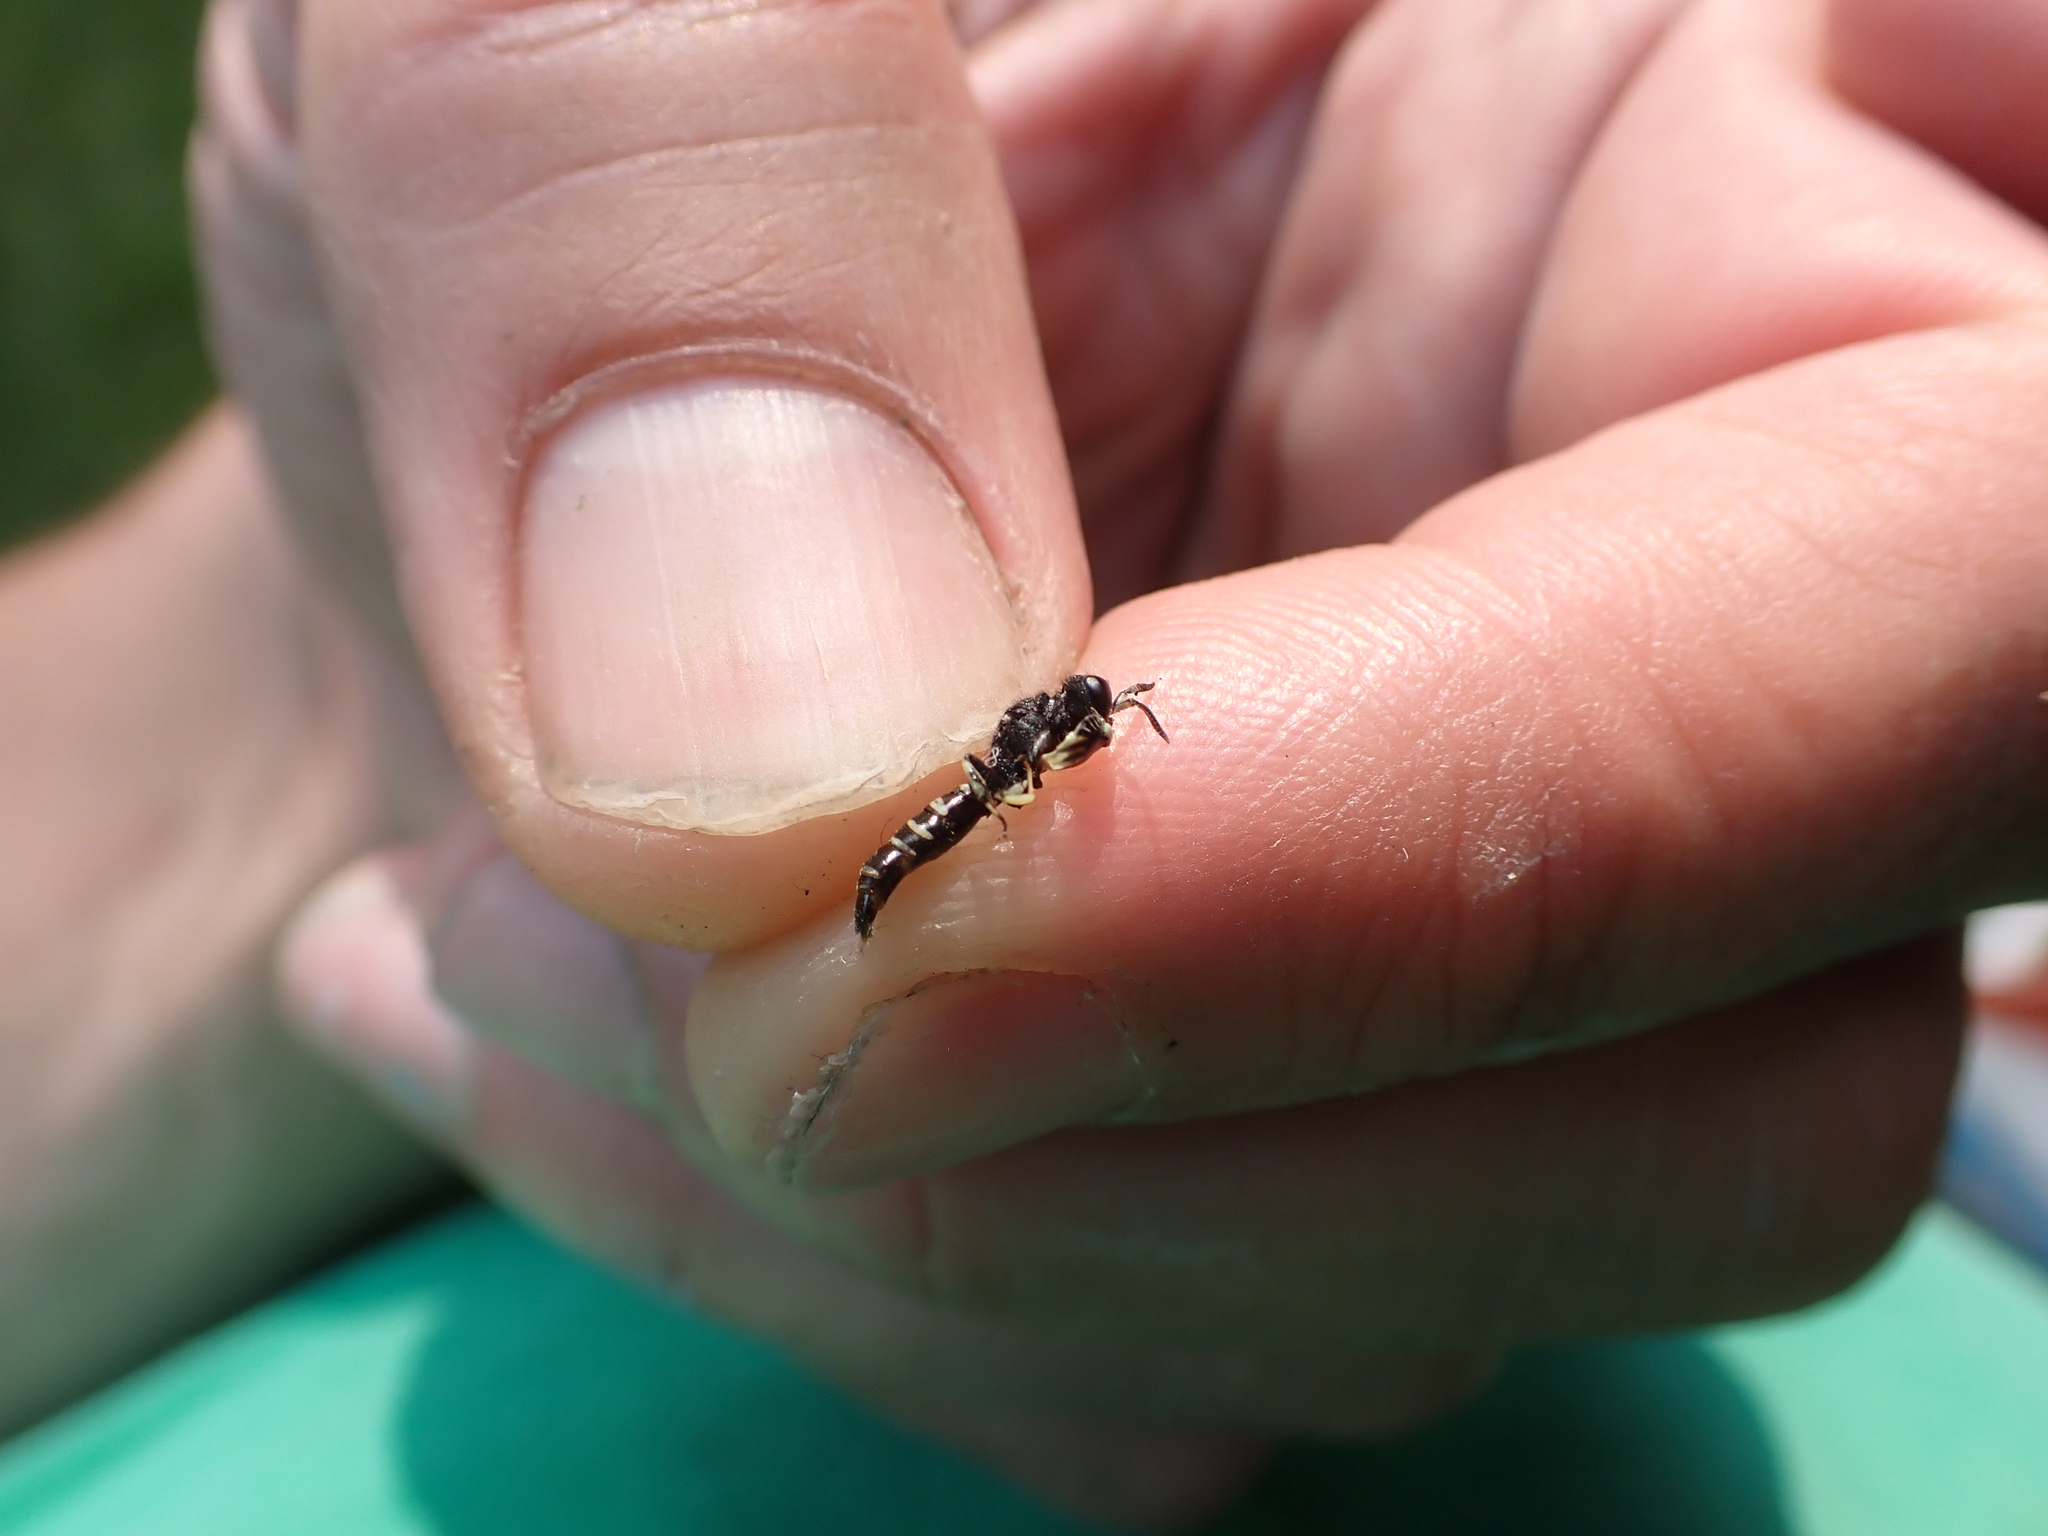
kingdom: Animalia
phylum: Arthropoda
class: Insecta
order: Hymenoptera
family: Crabronidae
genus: Crabro
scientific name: Crabro latipes
